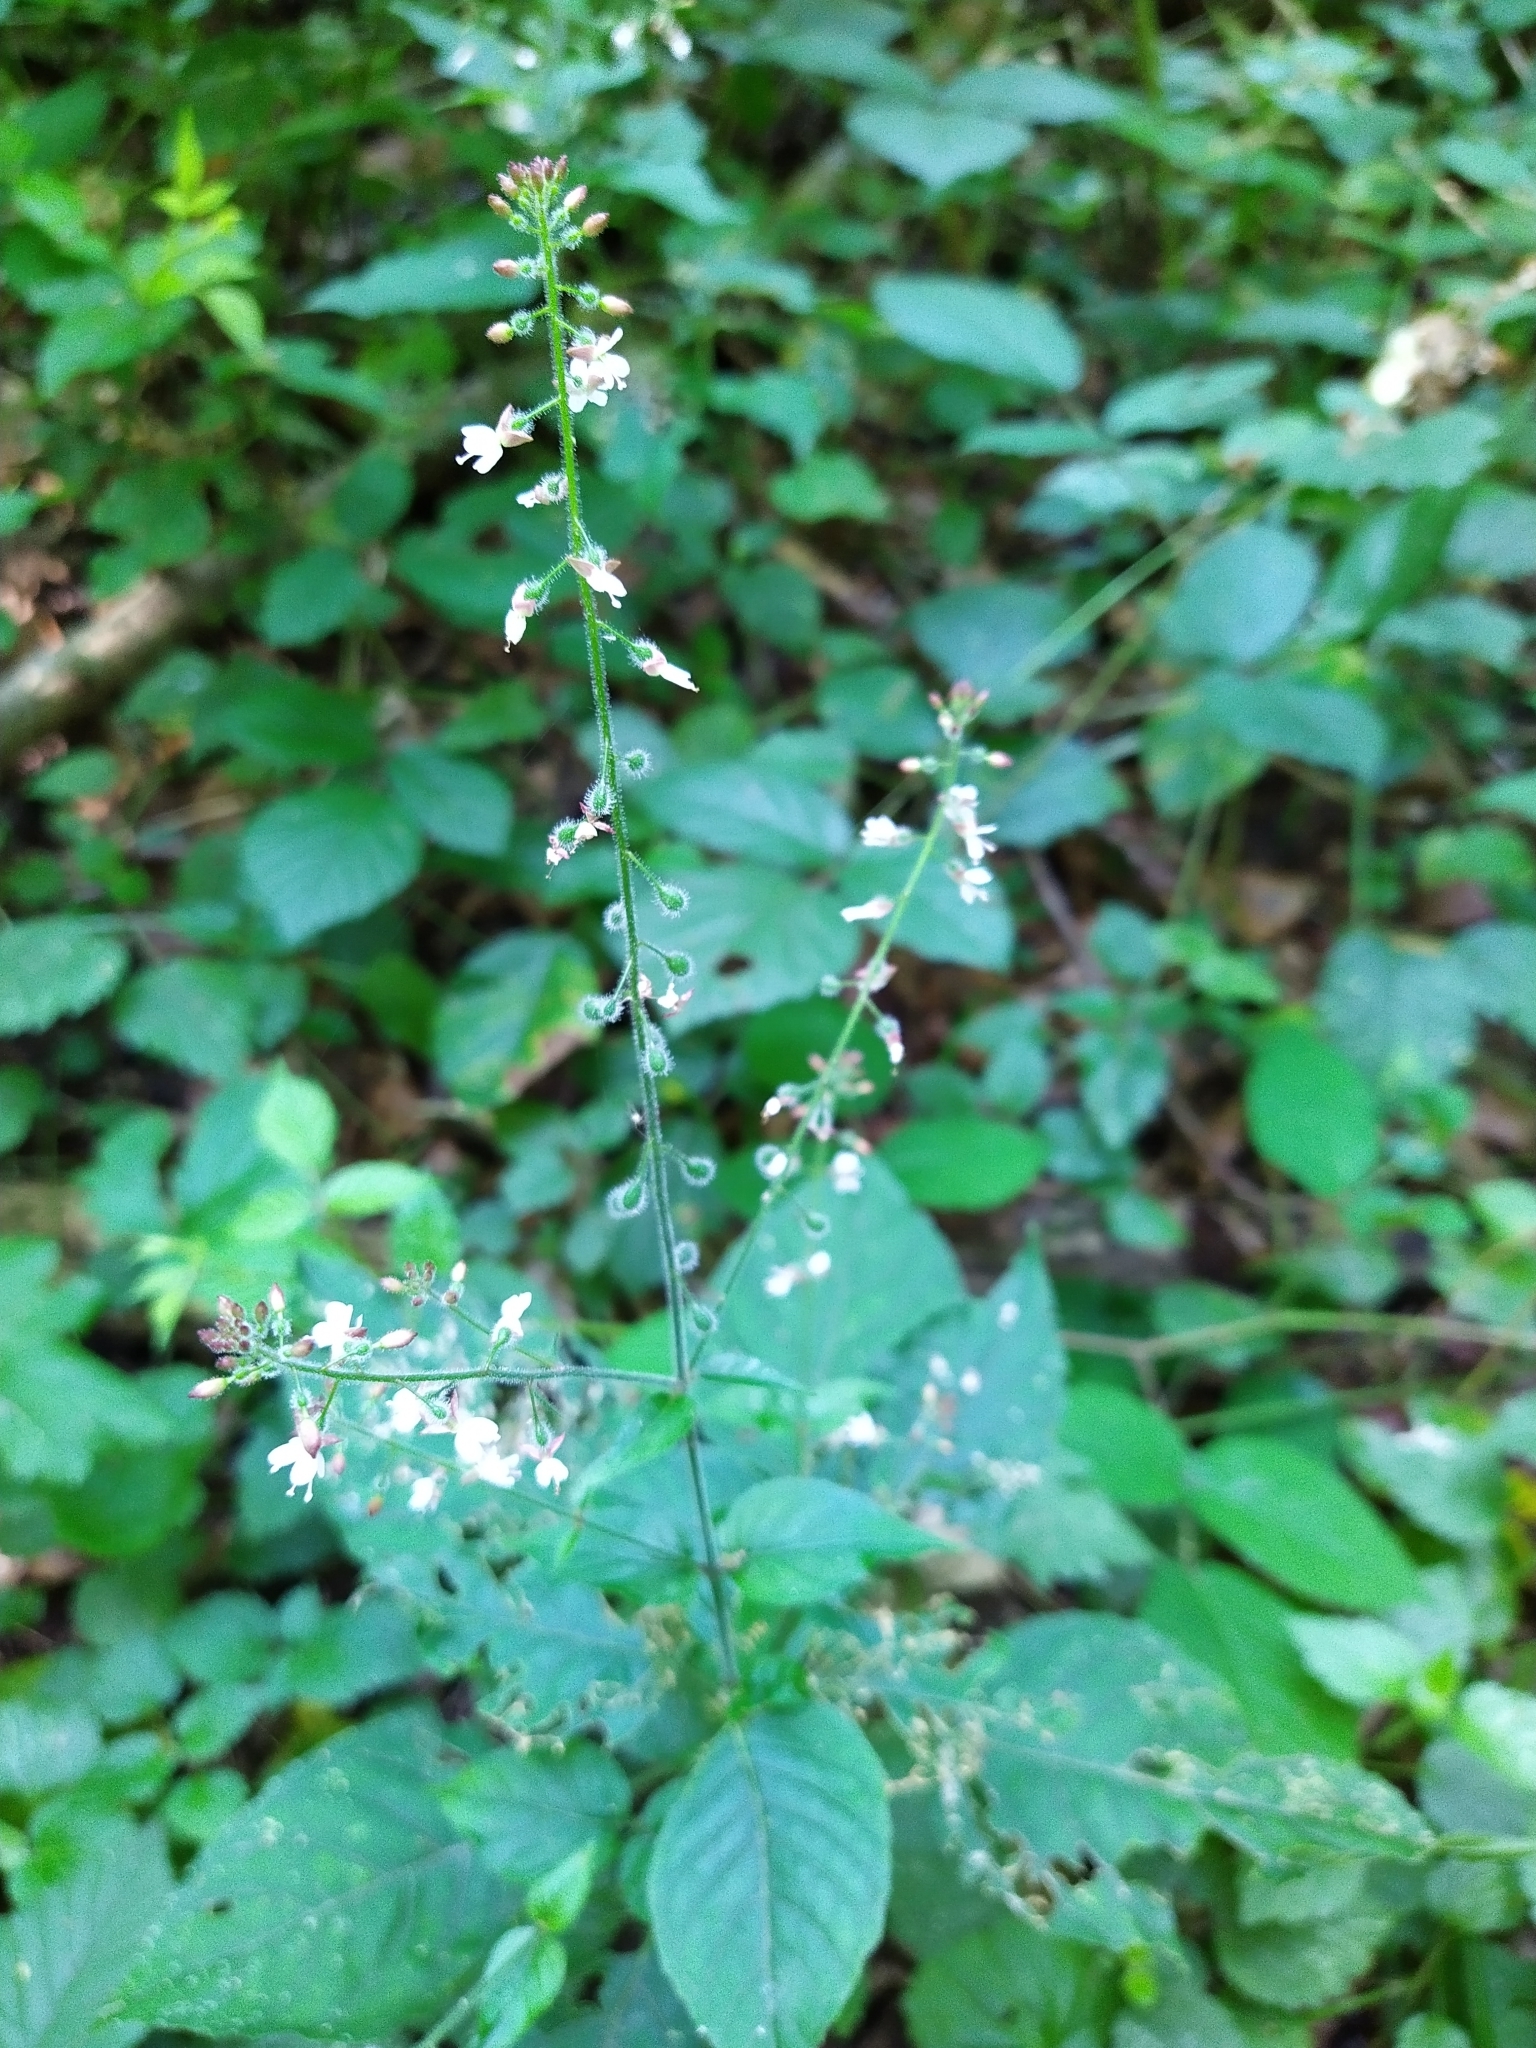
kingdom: Plantae
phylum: Tracheophyta
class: Magnoliopsida
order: Myrtales
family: Onagraceae
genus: Circaea
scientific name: Circaea lutetiana
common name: Enchanter's-nightshade
